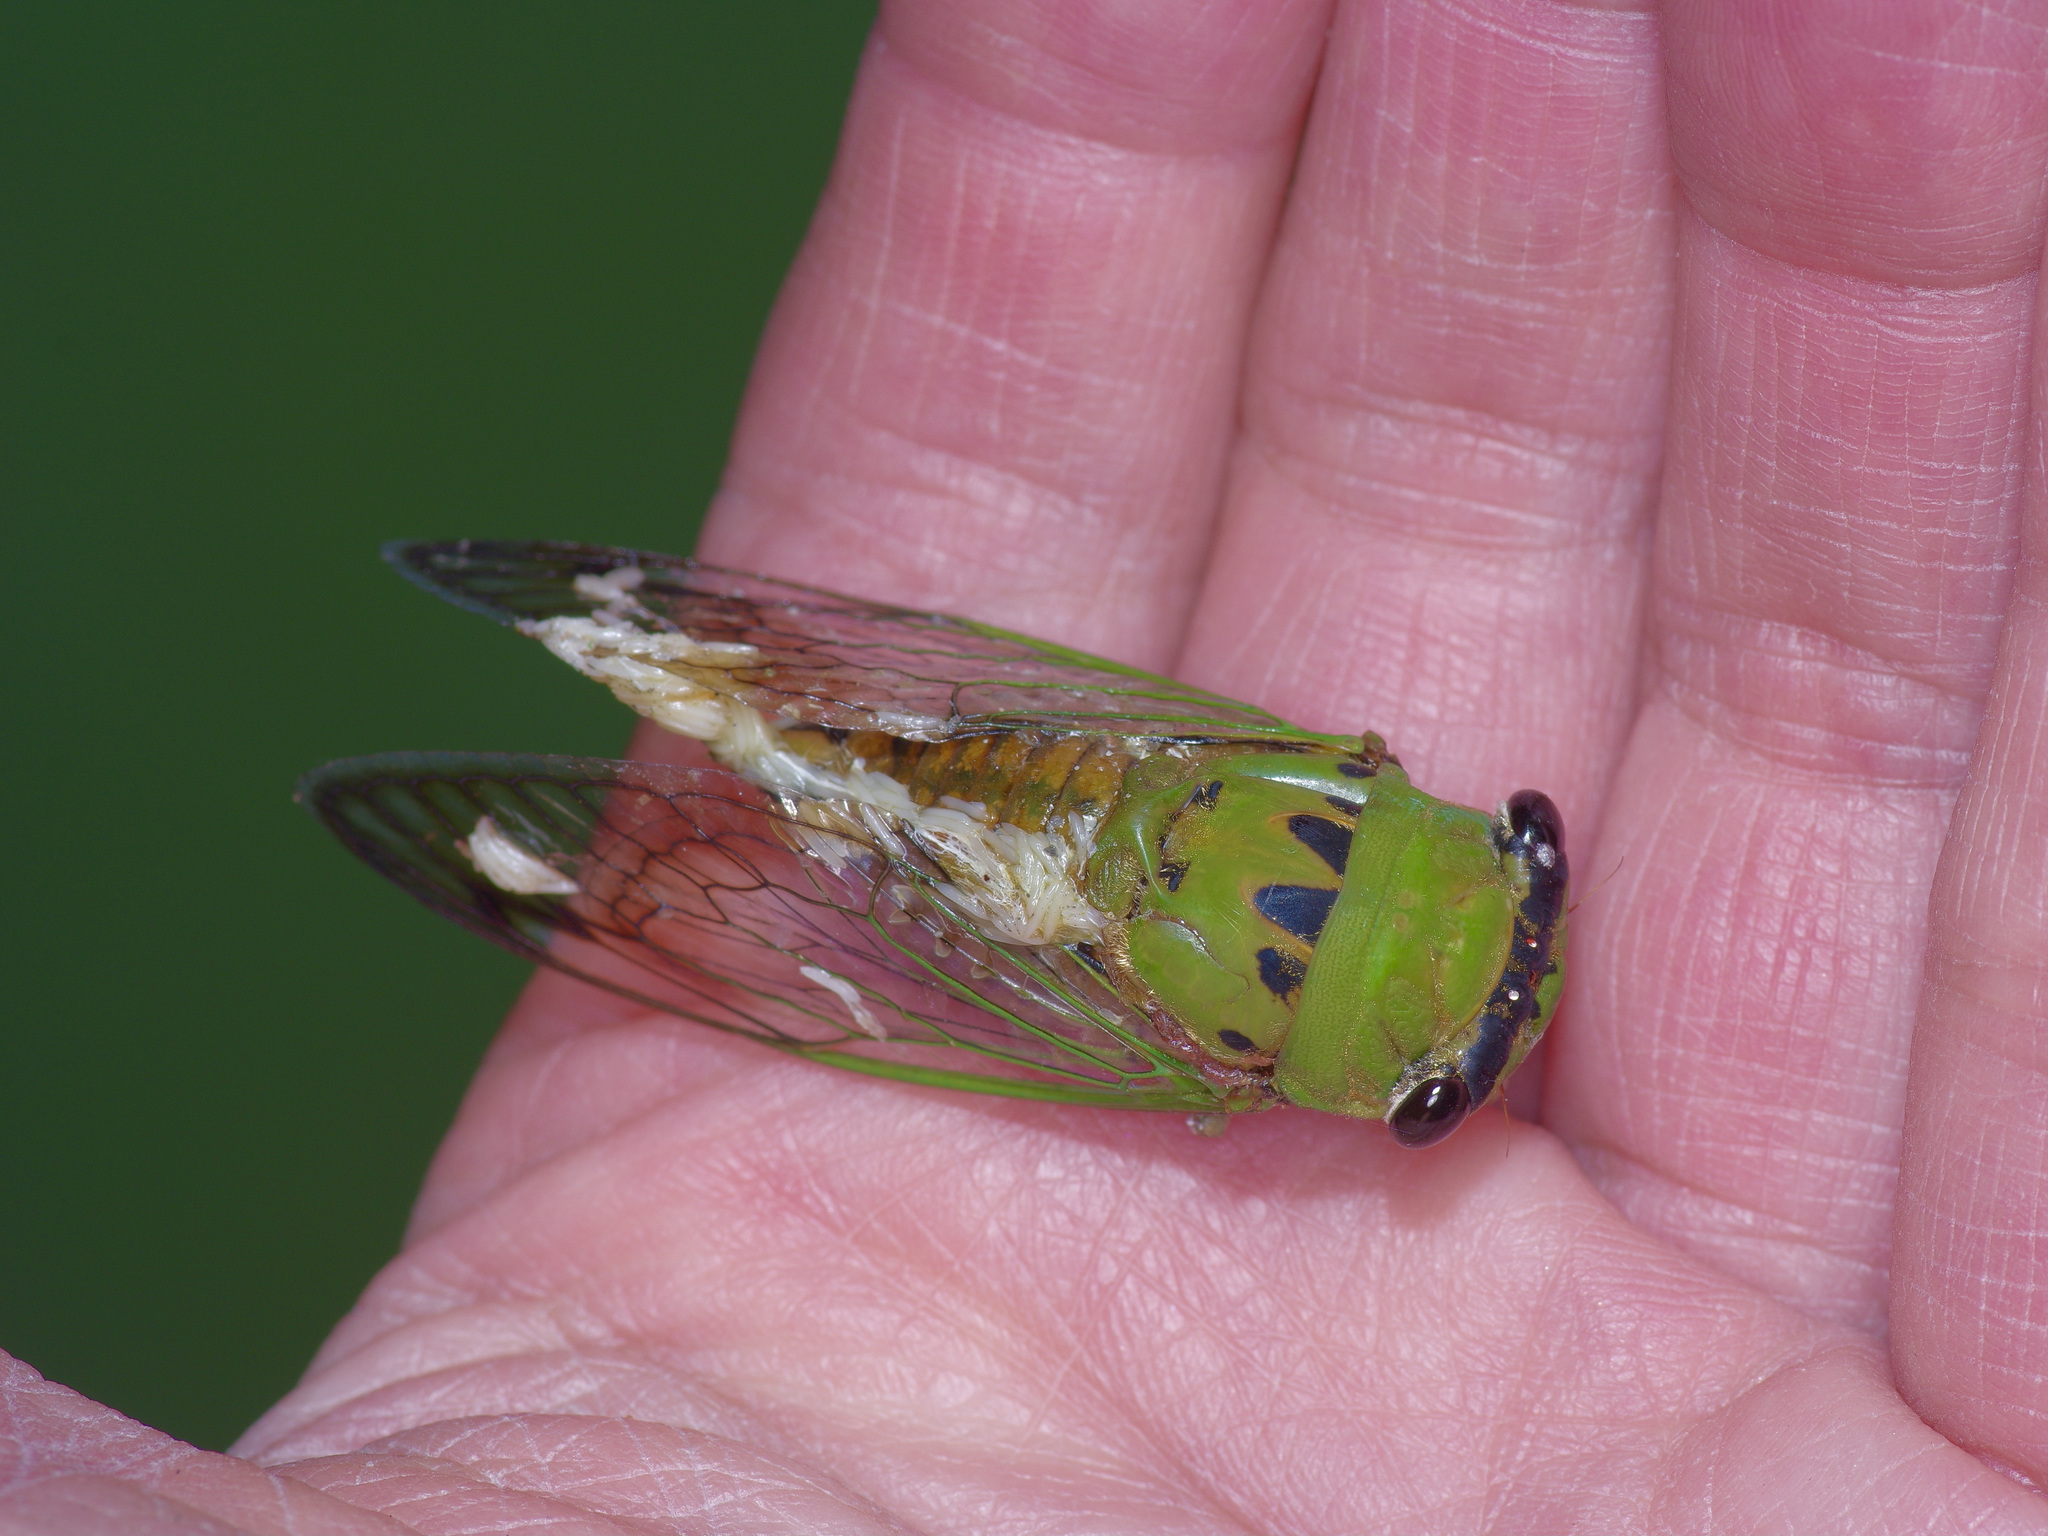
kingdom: Animalia
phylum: Arthropoda
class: Insecta
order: Hemiptera
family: Cicadidae
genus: Neotibicen
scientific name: Neotibicen superbus
